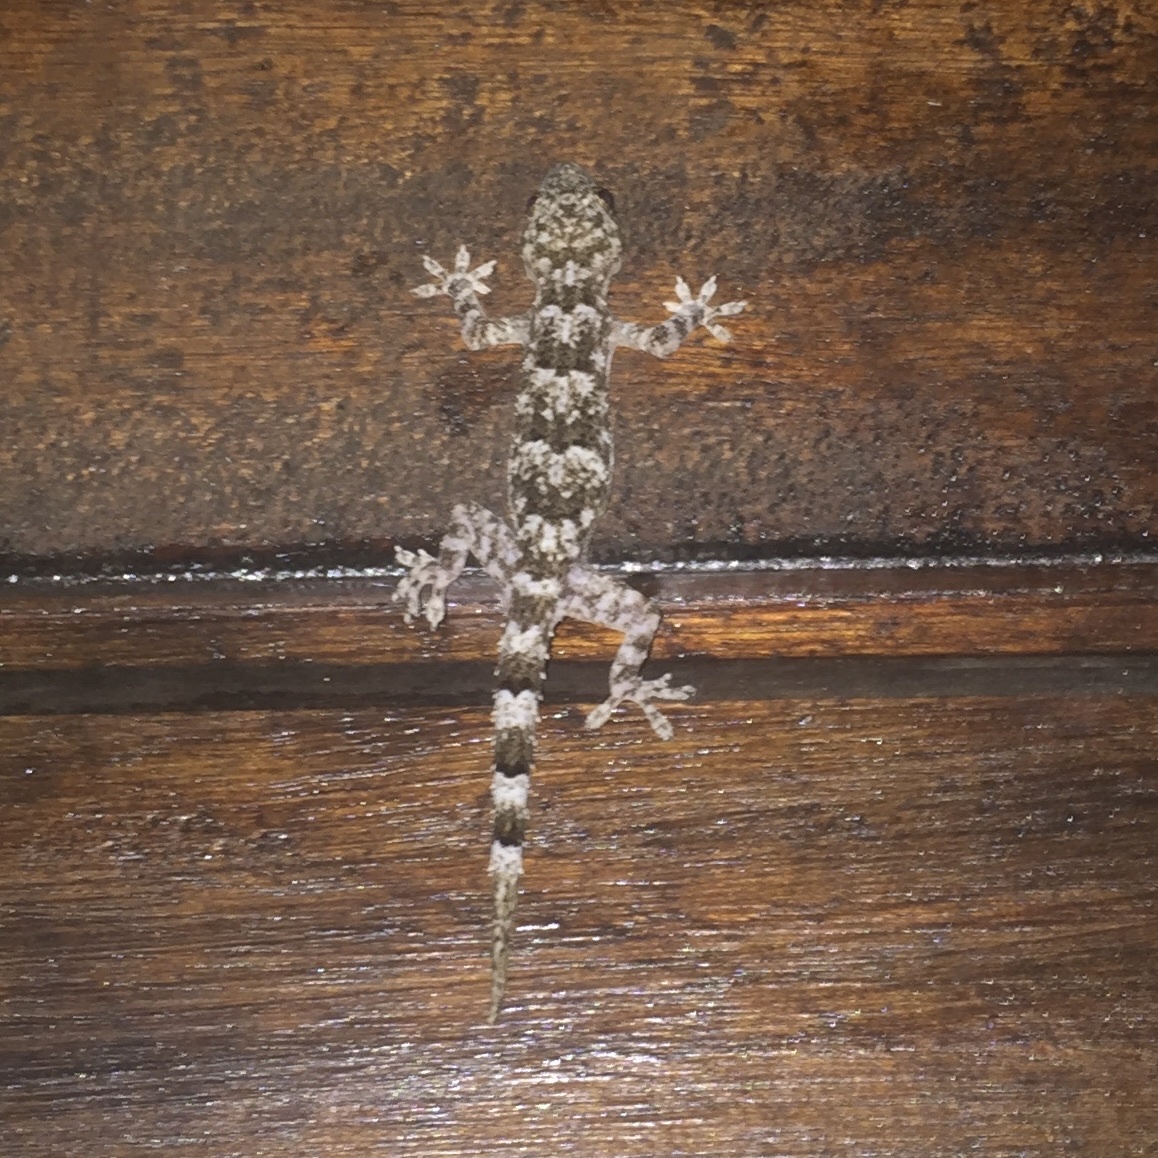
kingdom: Animalia
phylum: Chordata
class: Squamata
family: Gekkonidae
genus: Hemidactylus
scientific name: Hemidactylus mabouia
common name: House gecko
